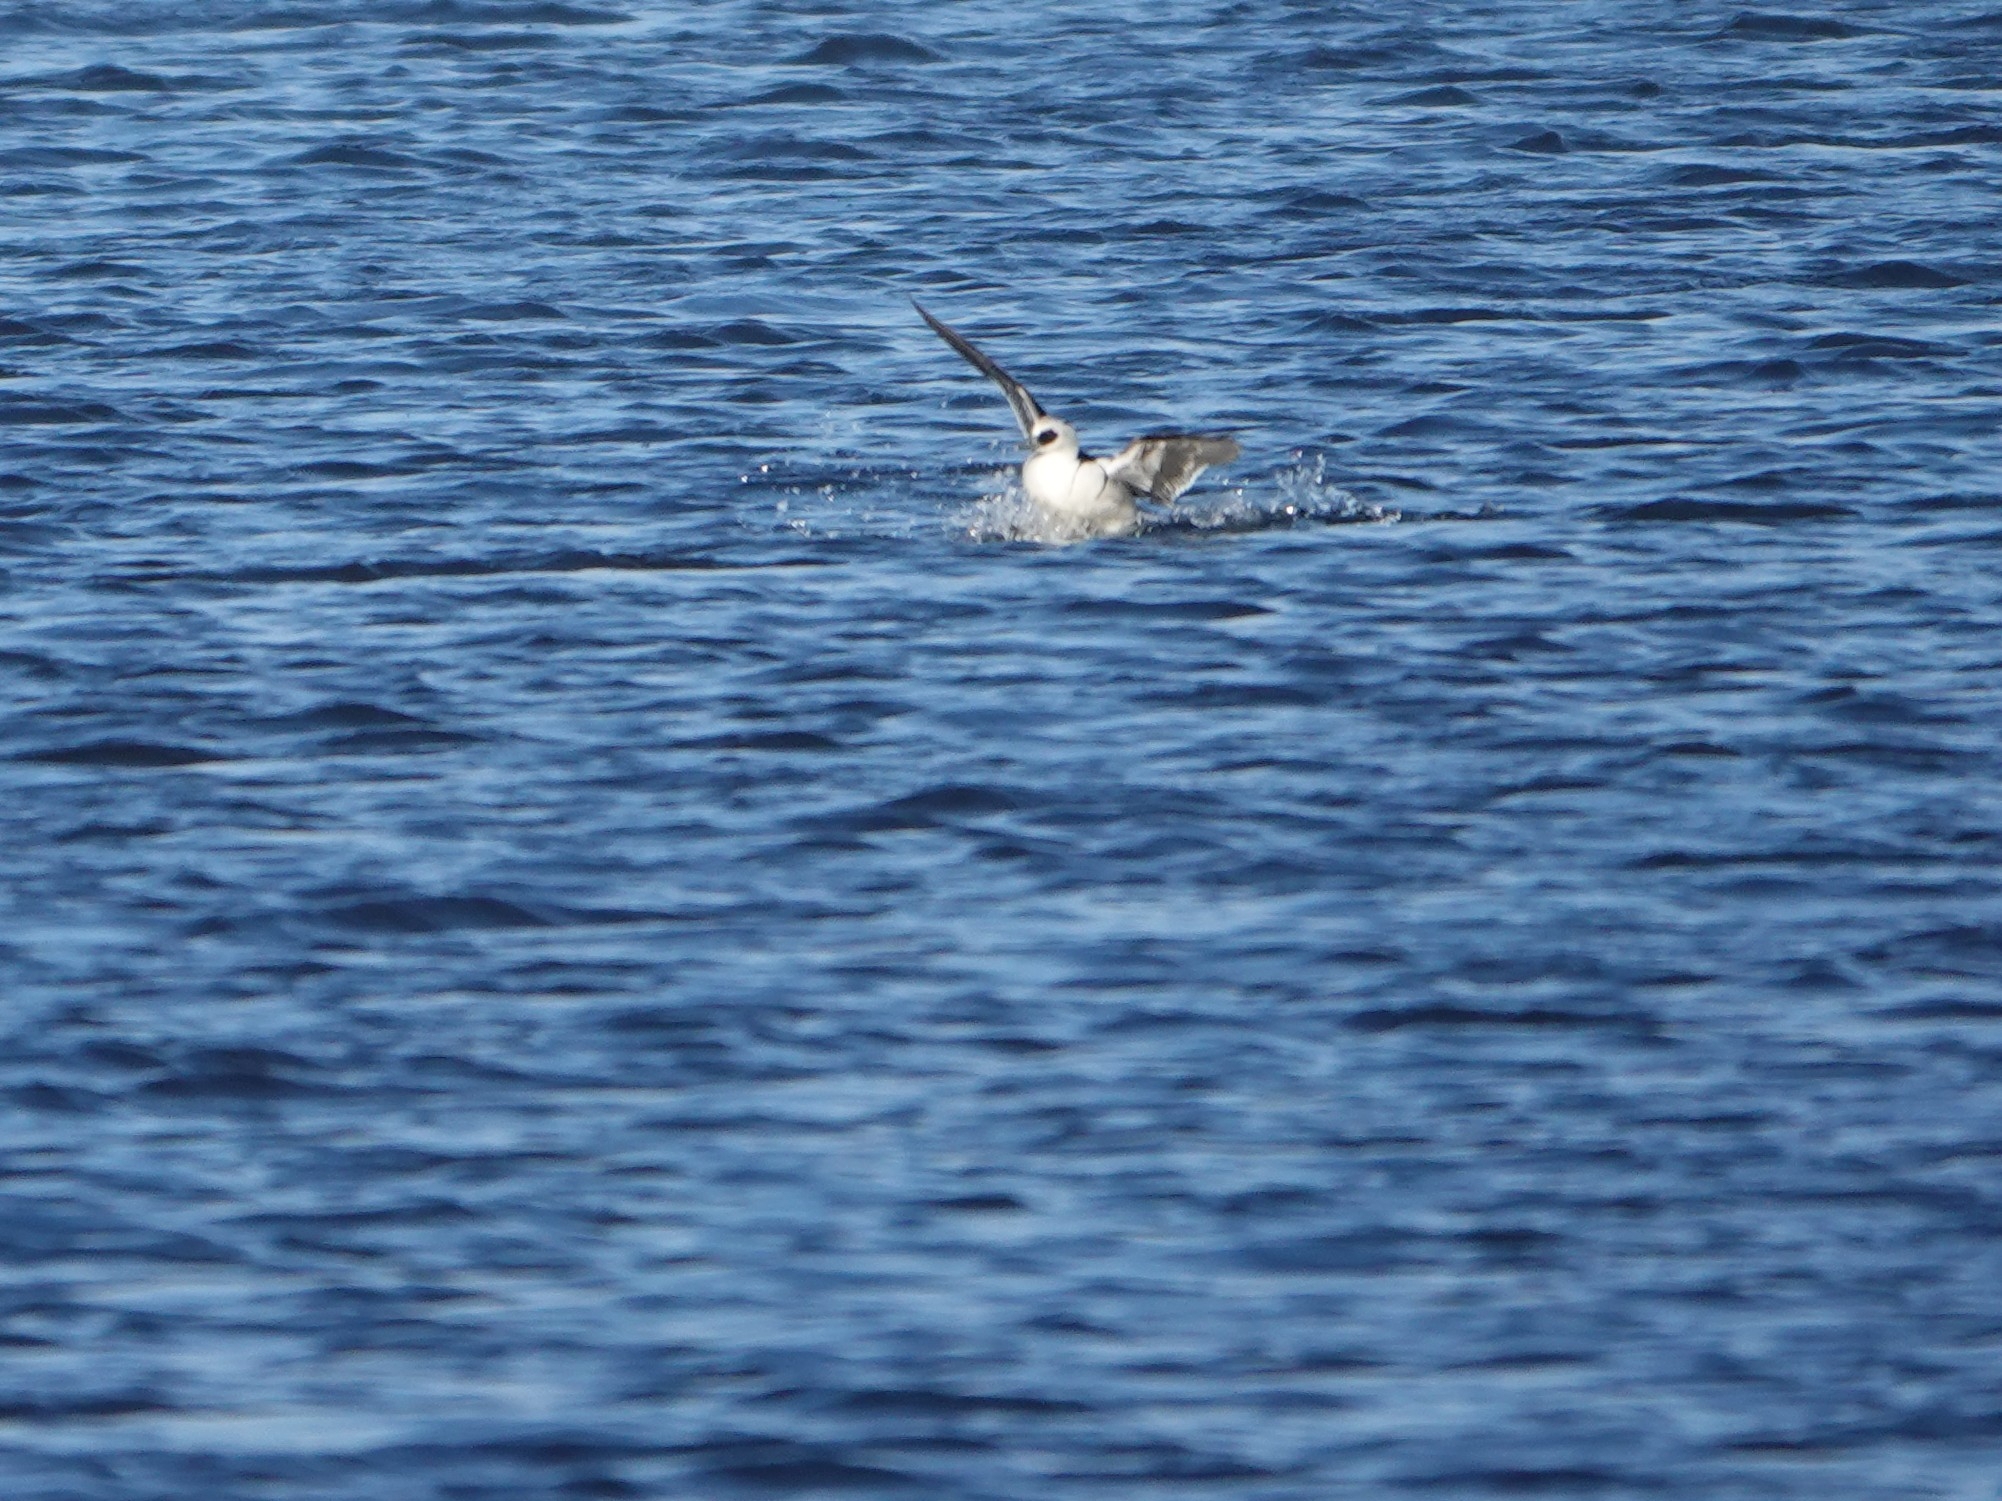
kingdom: Animalia
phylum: Chordata
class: Aves
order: Anseriformes
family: Anatidae
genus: Mergellus
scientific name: Mergellus albellus
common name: Smew
